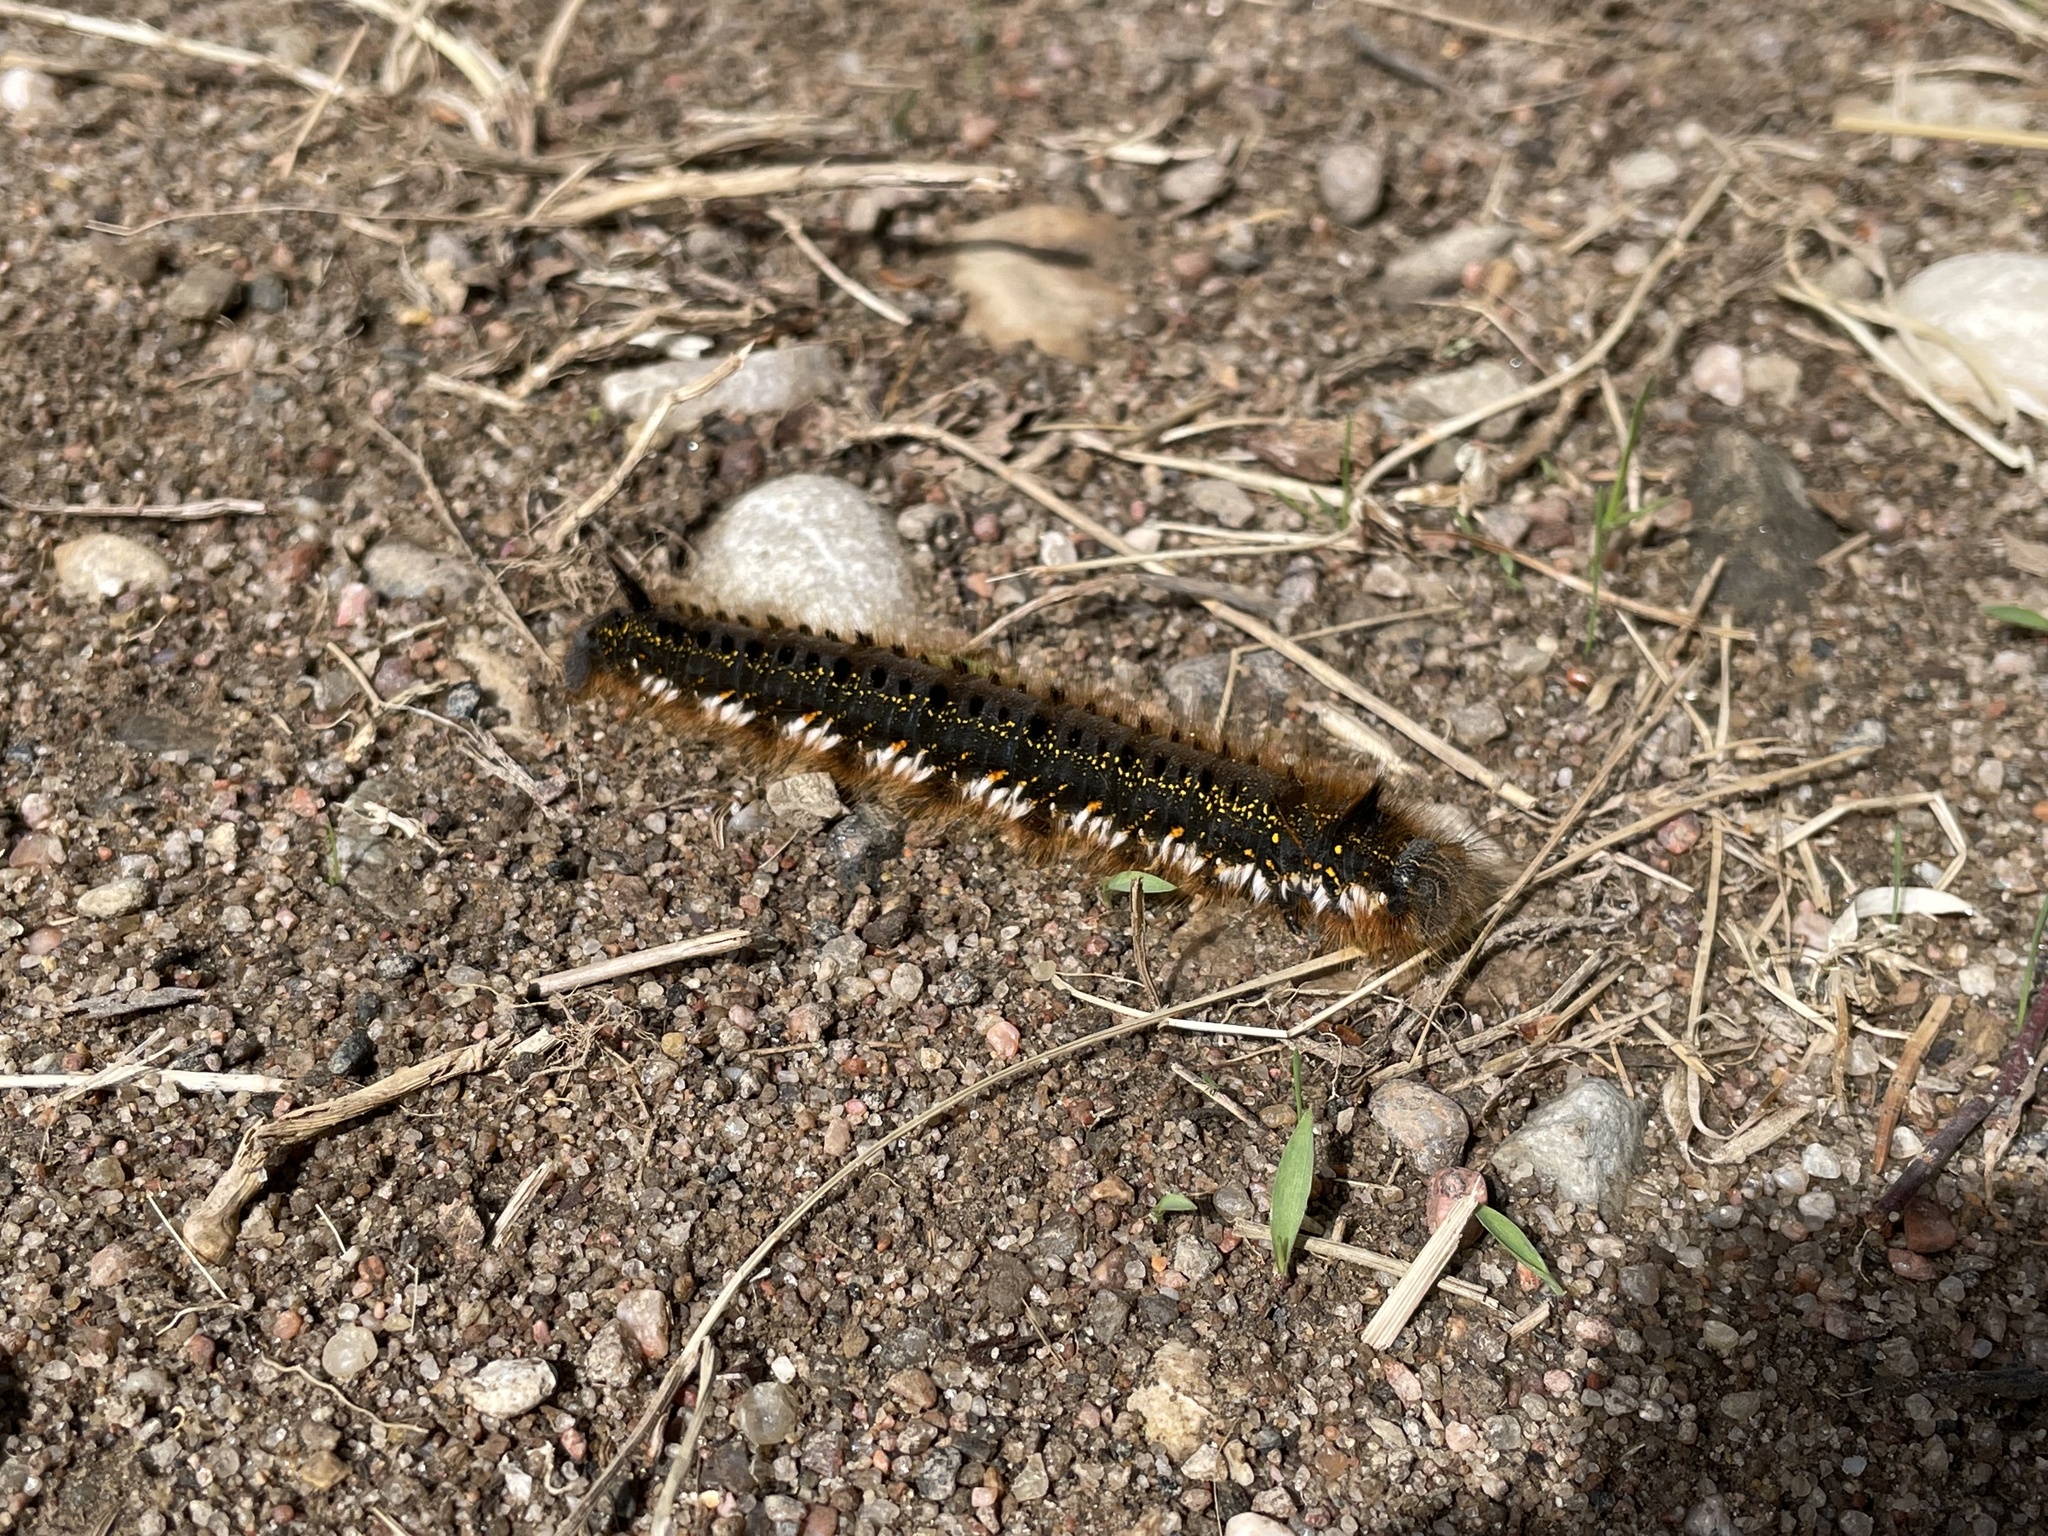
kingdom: Animalia
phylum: Arthropoda
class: Insecta
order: Lepidoptera
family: Lasiocampidae
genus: Euthrix
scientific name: Euthrix potatoria
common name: Drinker
